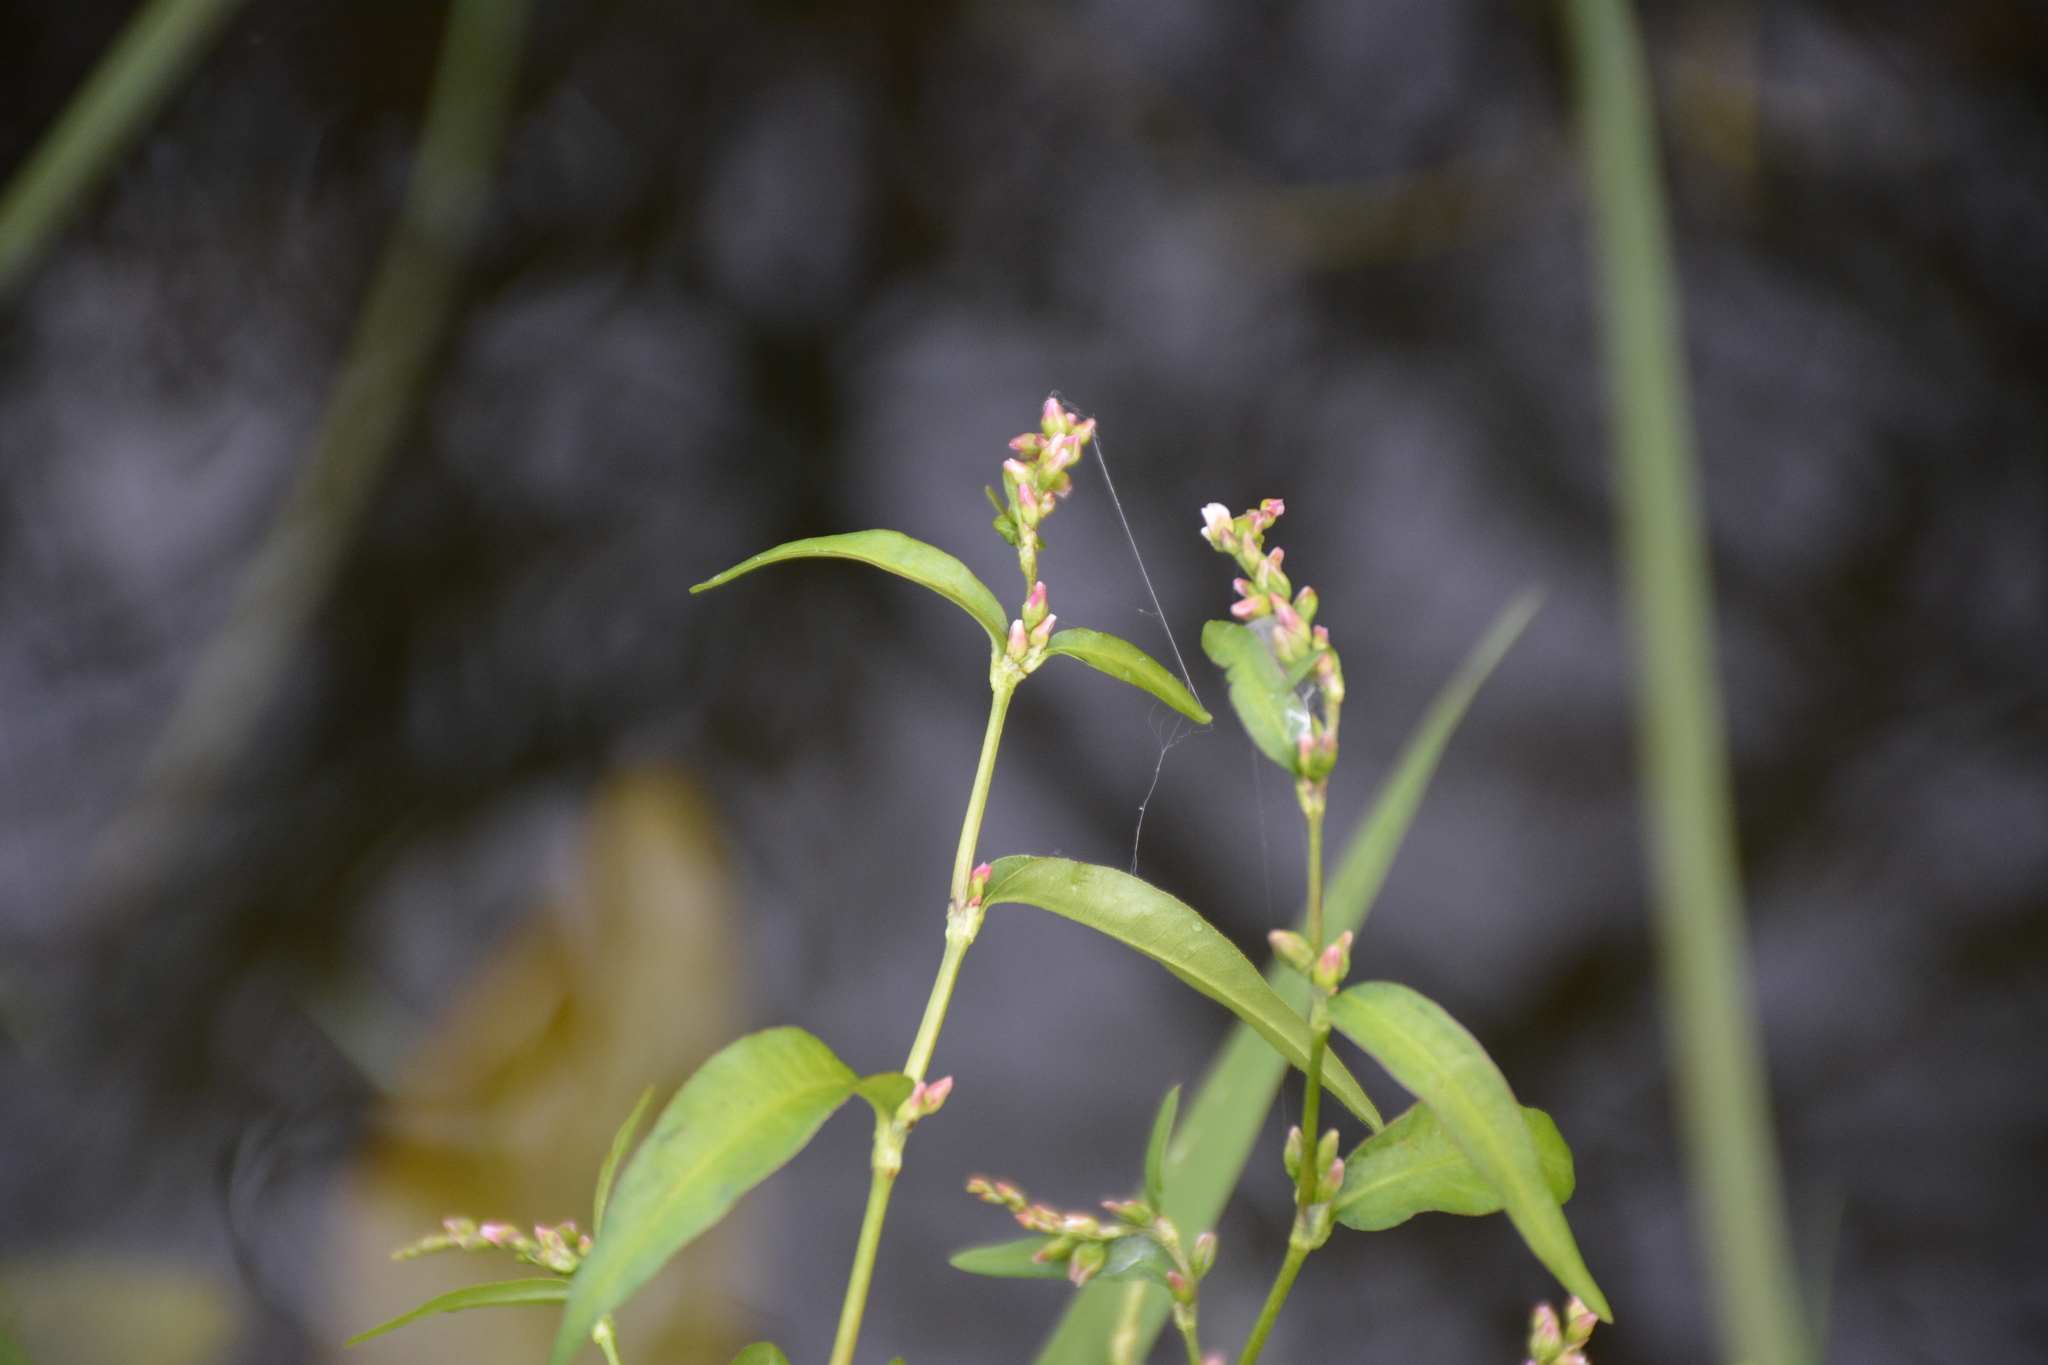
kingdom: Plantae
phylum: Tracheophyta
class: Magnoliopsida
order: Caryophyllales
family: Polygonaceae
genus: Persicaria
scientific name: Persicaria hydropiper
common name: Water-pepper
